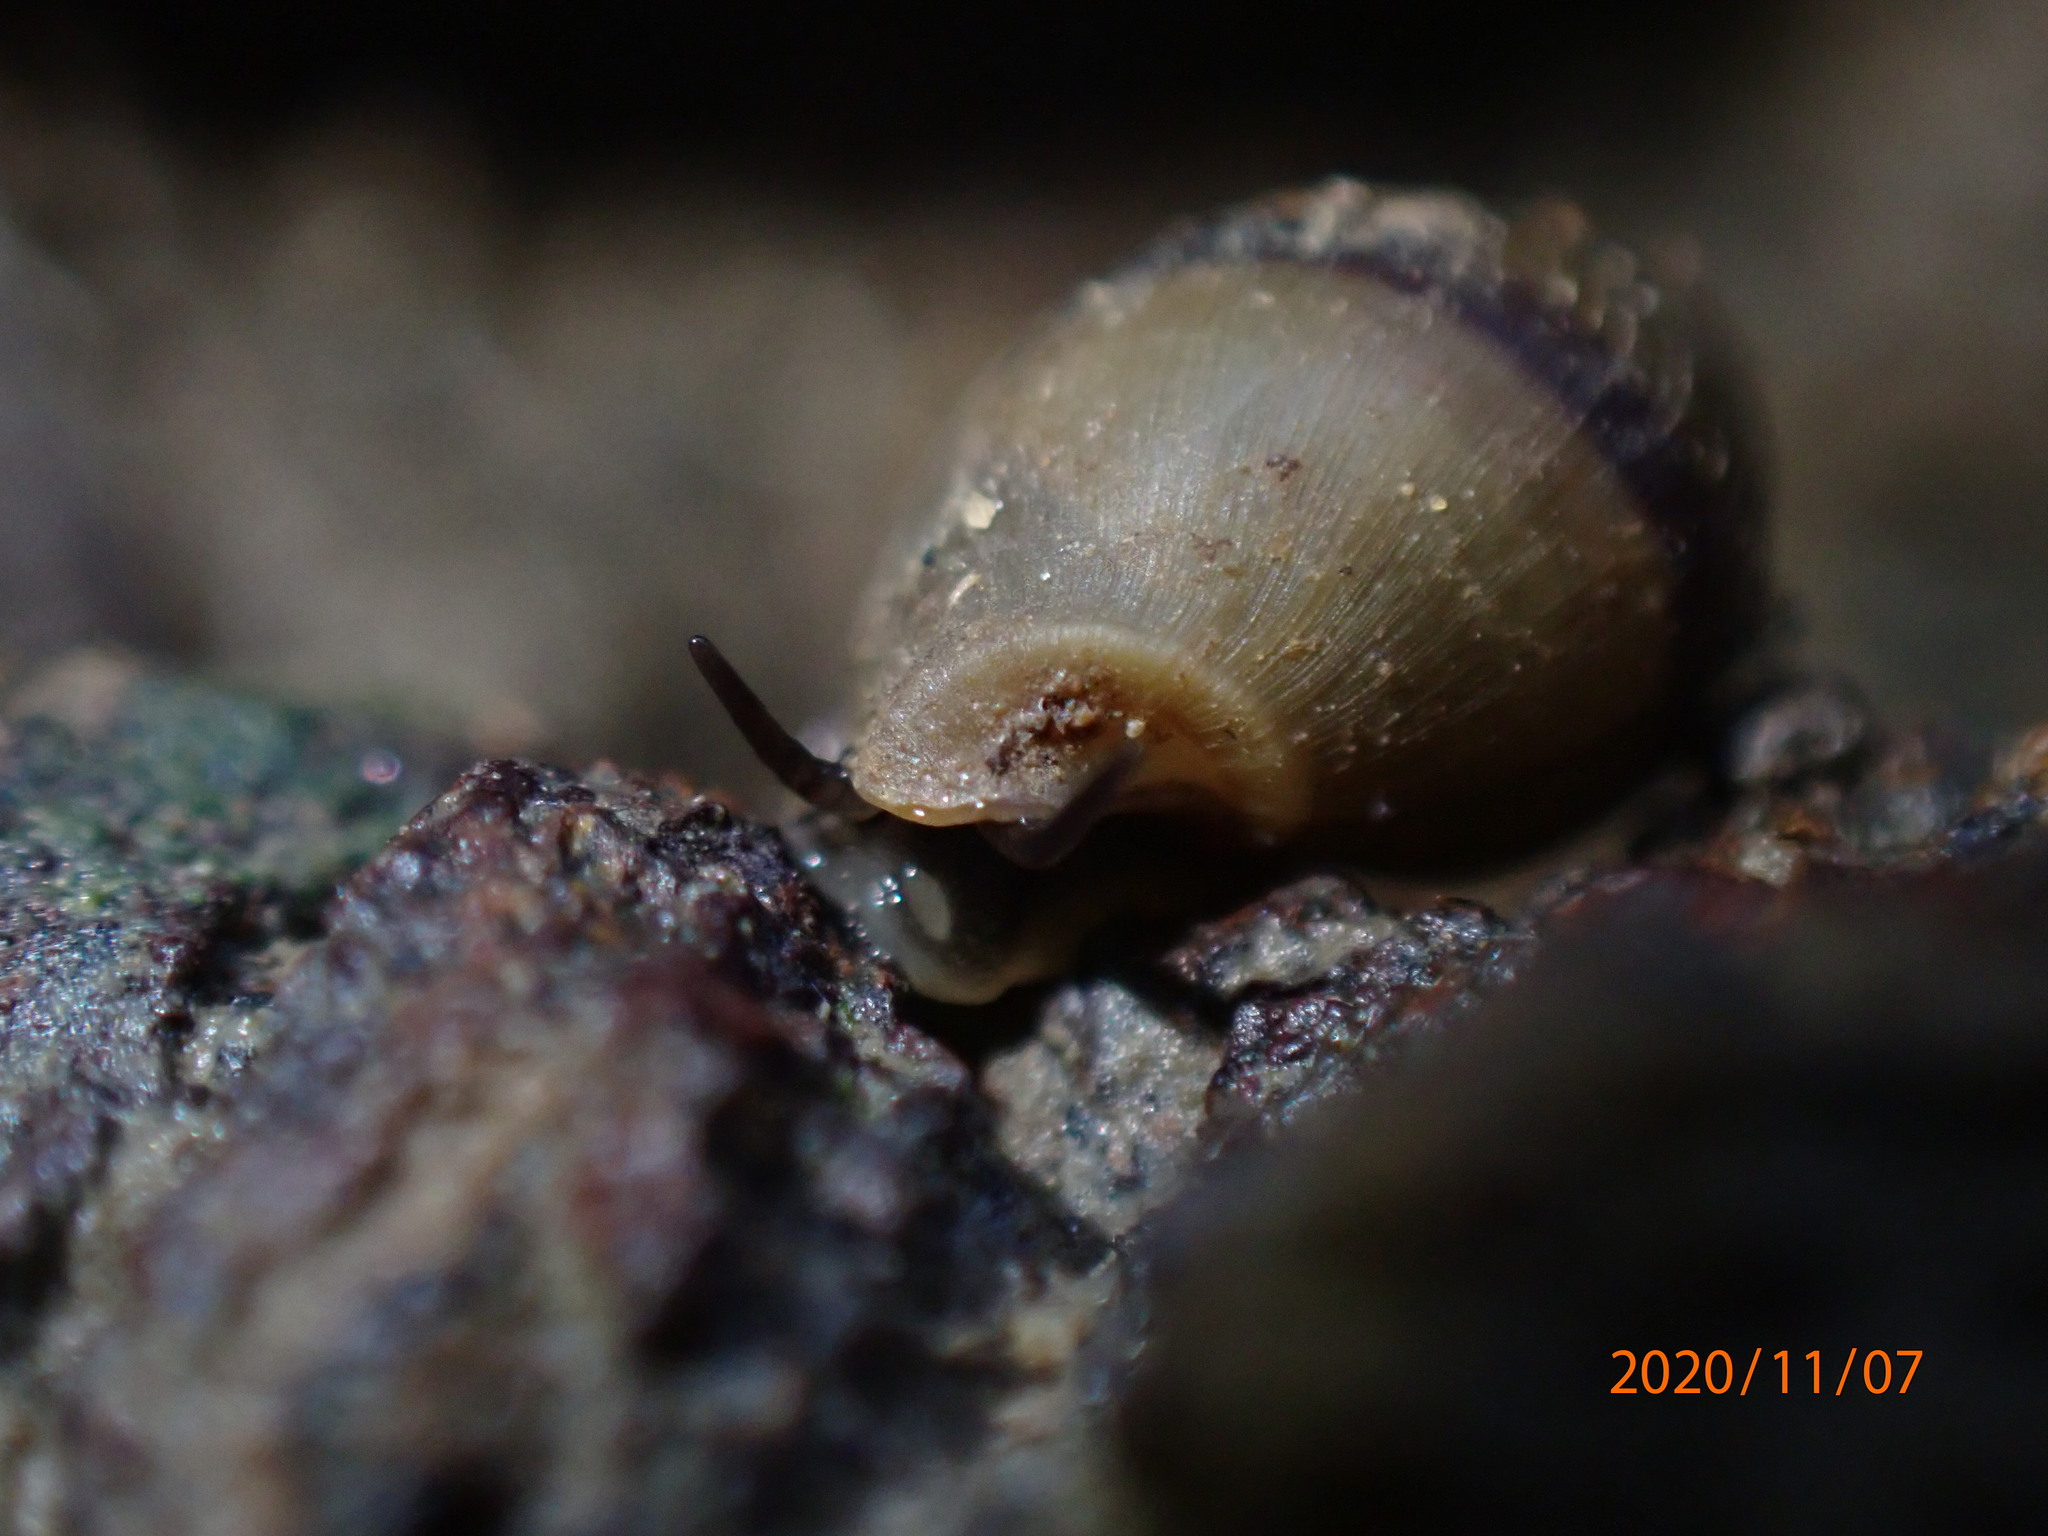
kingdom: Animalia
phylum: Mollusca
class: Gastropoda
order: Ellobiida
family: Ellobiidae
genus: Pleuroloba
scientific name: Pleuroloba costellaris
